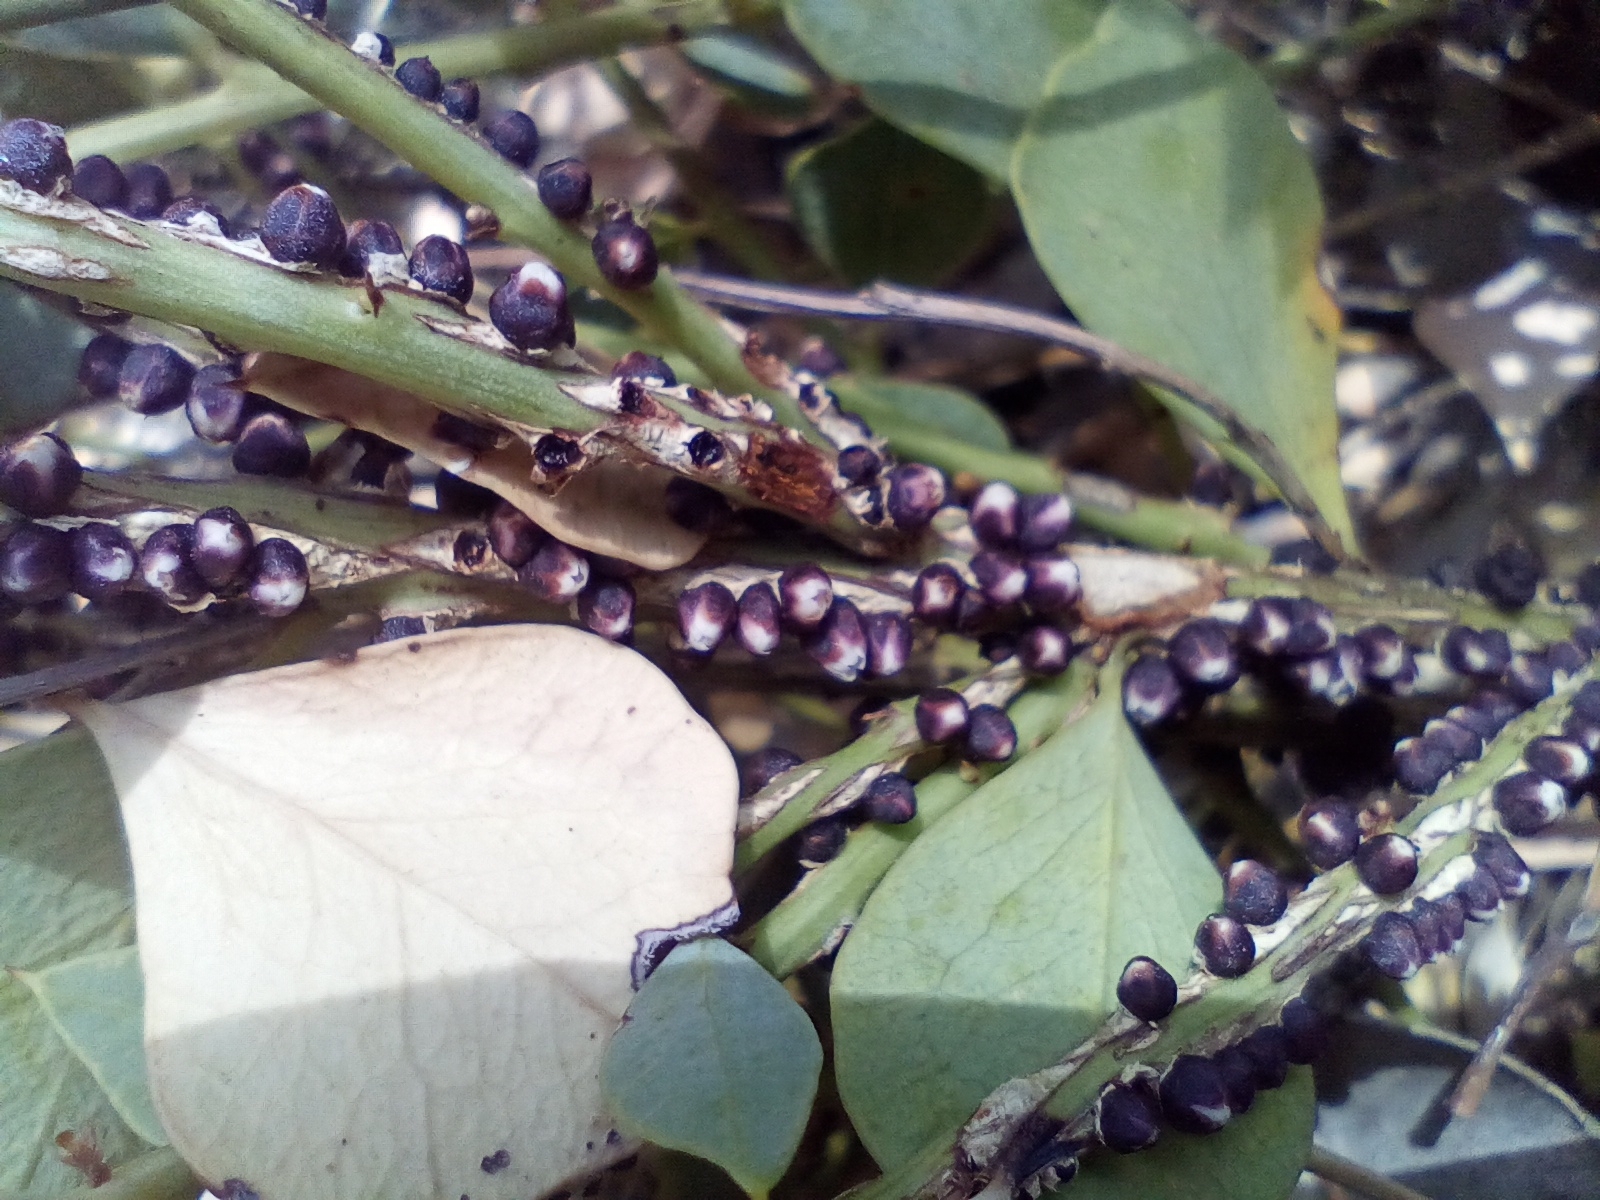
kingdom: Plantae
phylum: Tracheophyta
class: Magnoliopsida
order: Cucurbitales
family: Apodanthaceae
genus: Pilostyles
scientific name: Pilostyles hamiltonii
